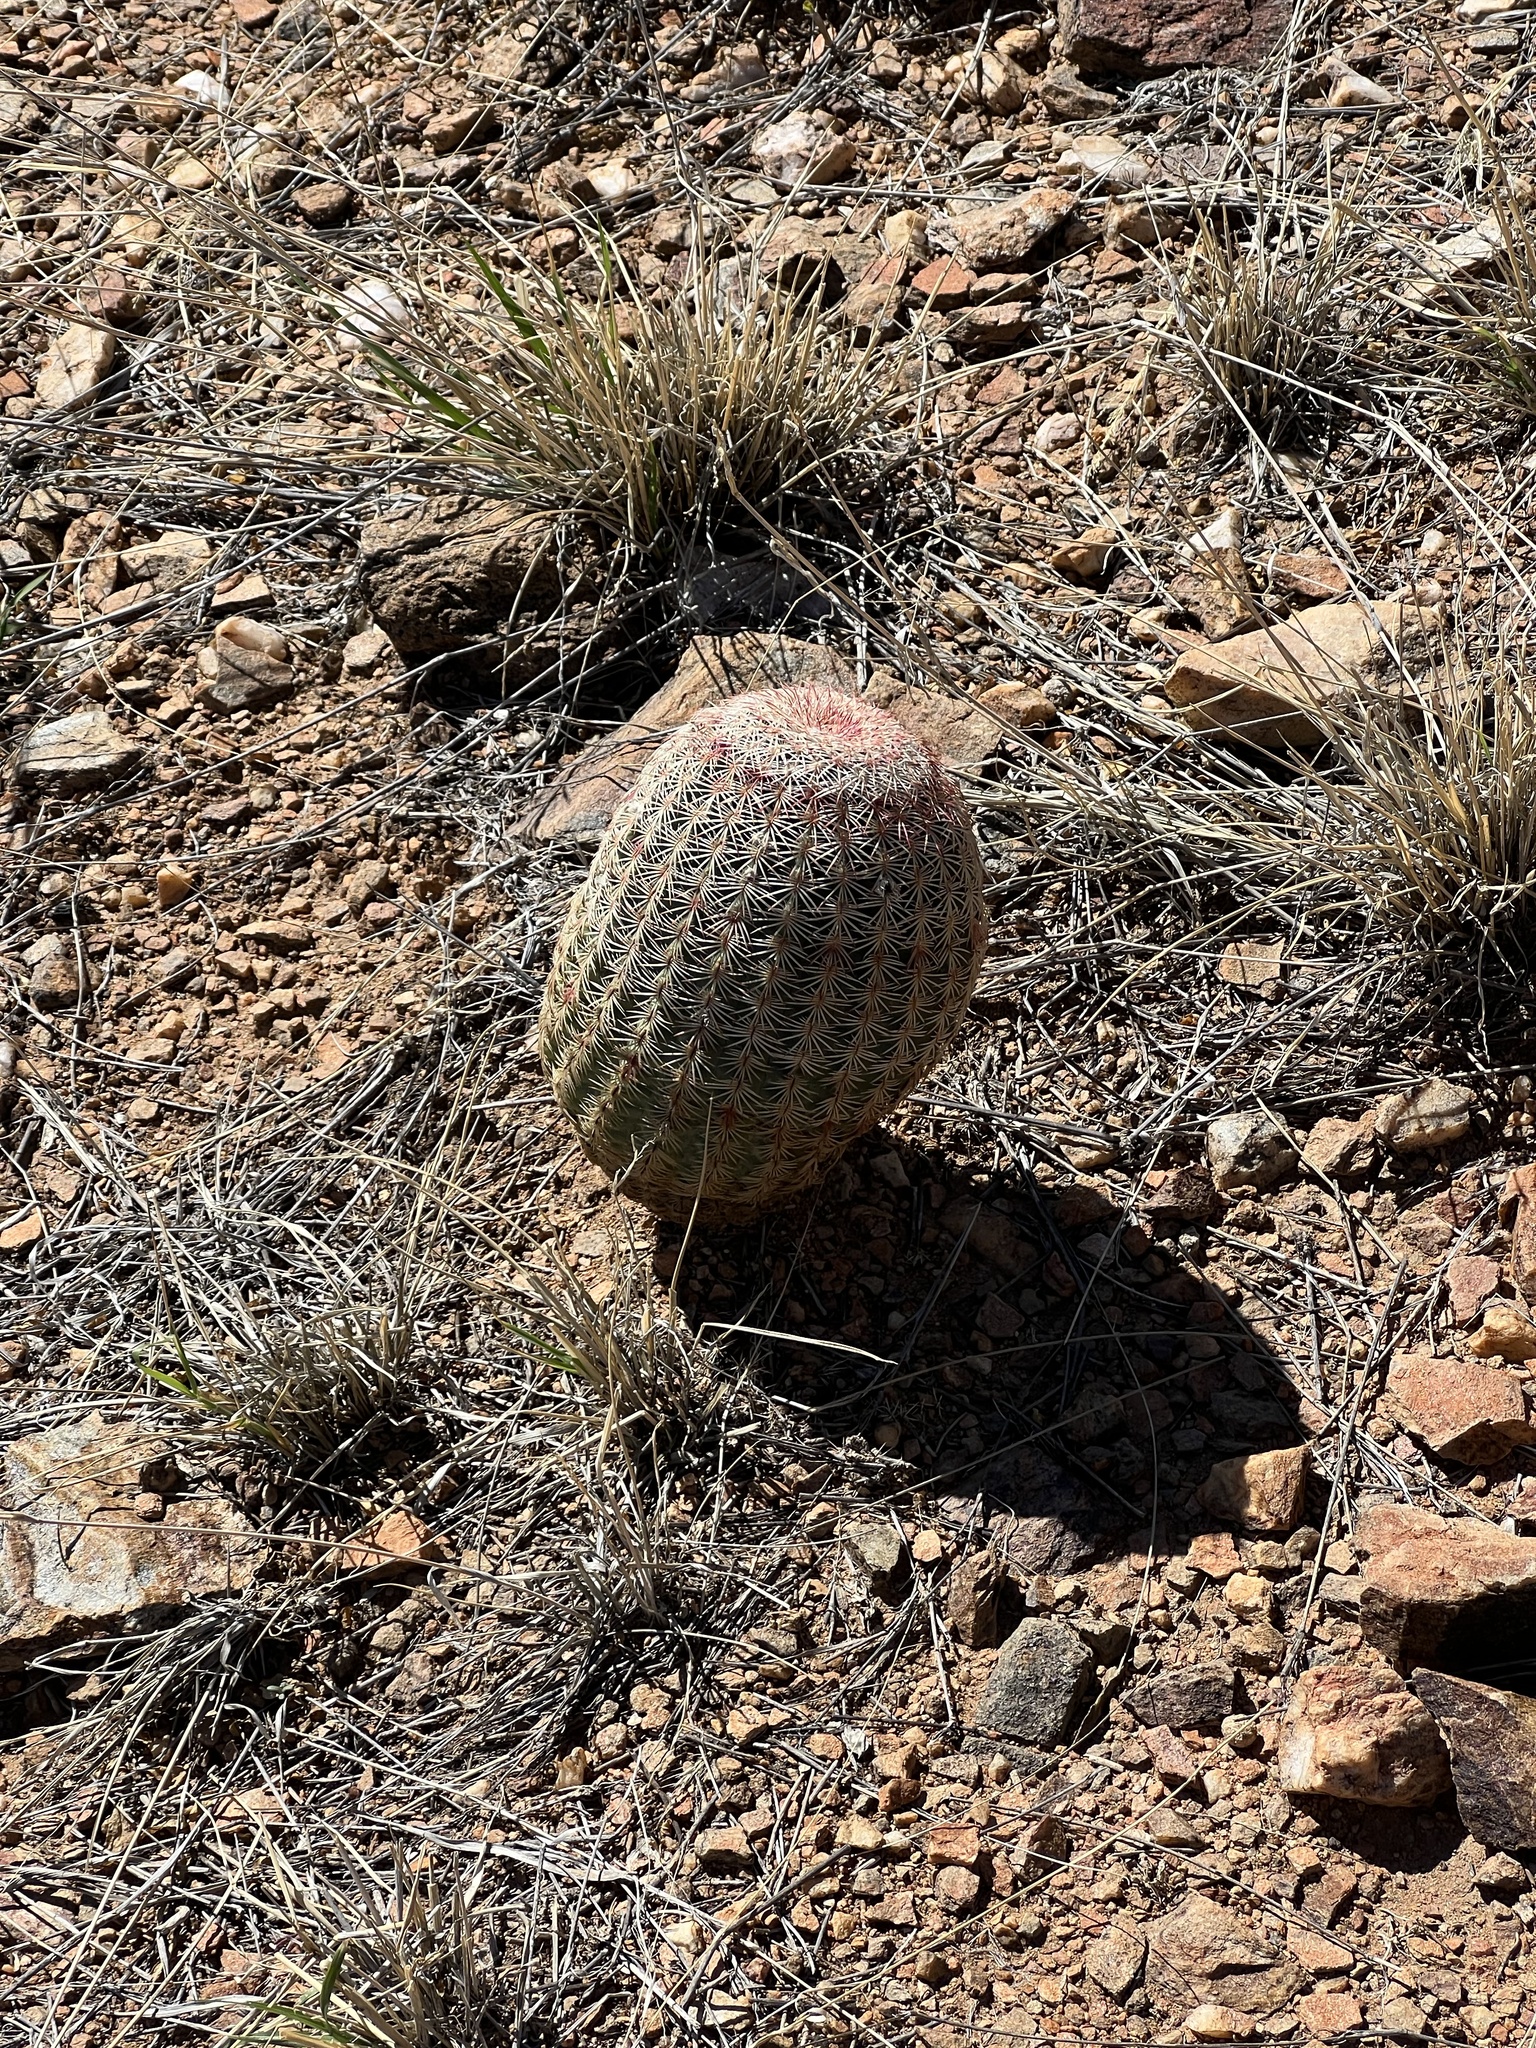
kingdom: Plantae
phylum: Tracheophyta
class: Magnoliopsida
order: Caryophyllales
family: Cactaceae
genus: Echinocereus
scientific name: Echinocereus rigidissimus
